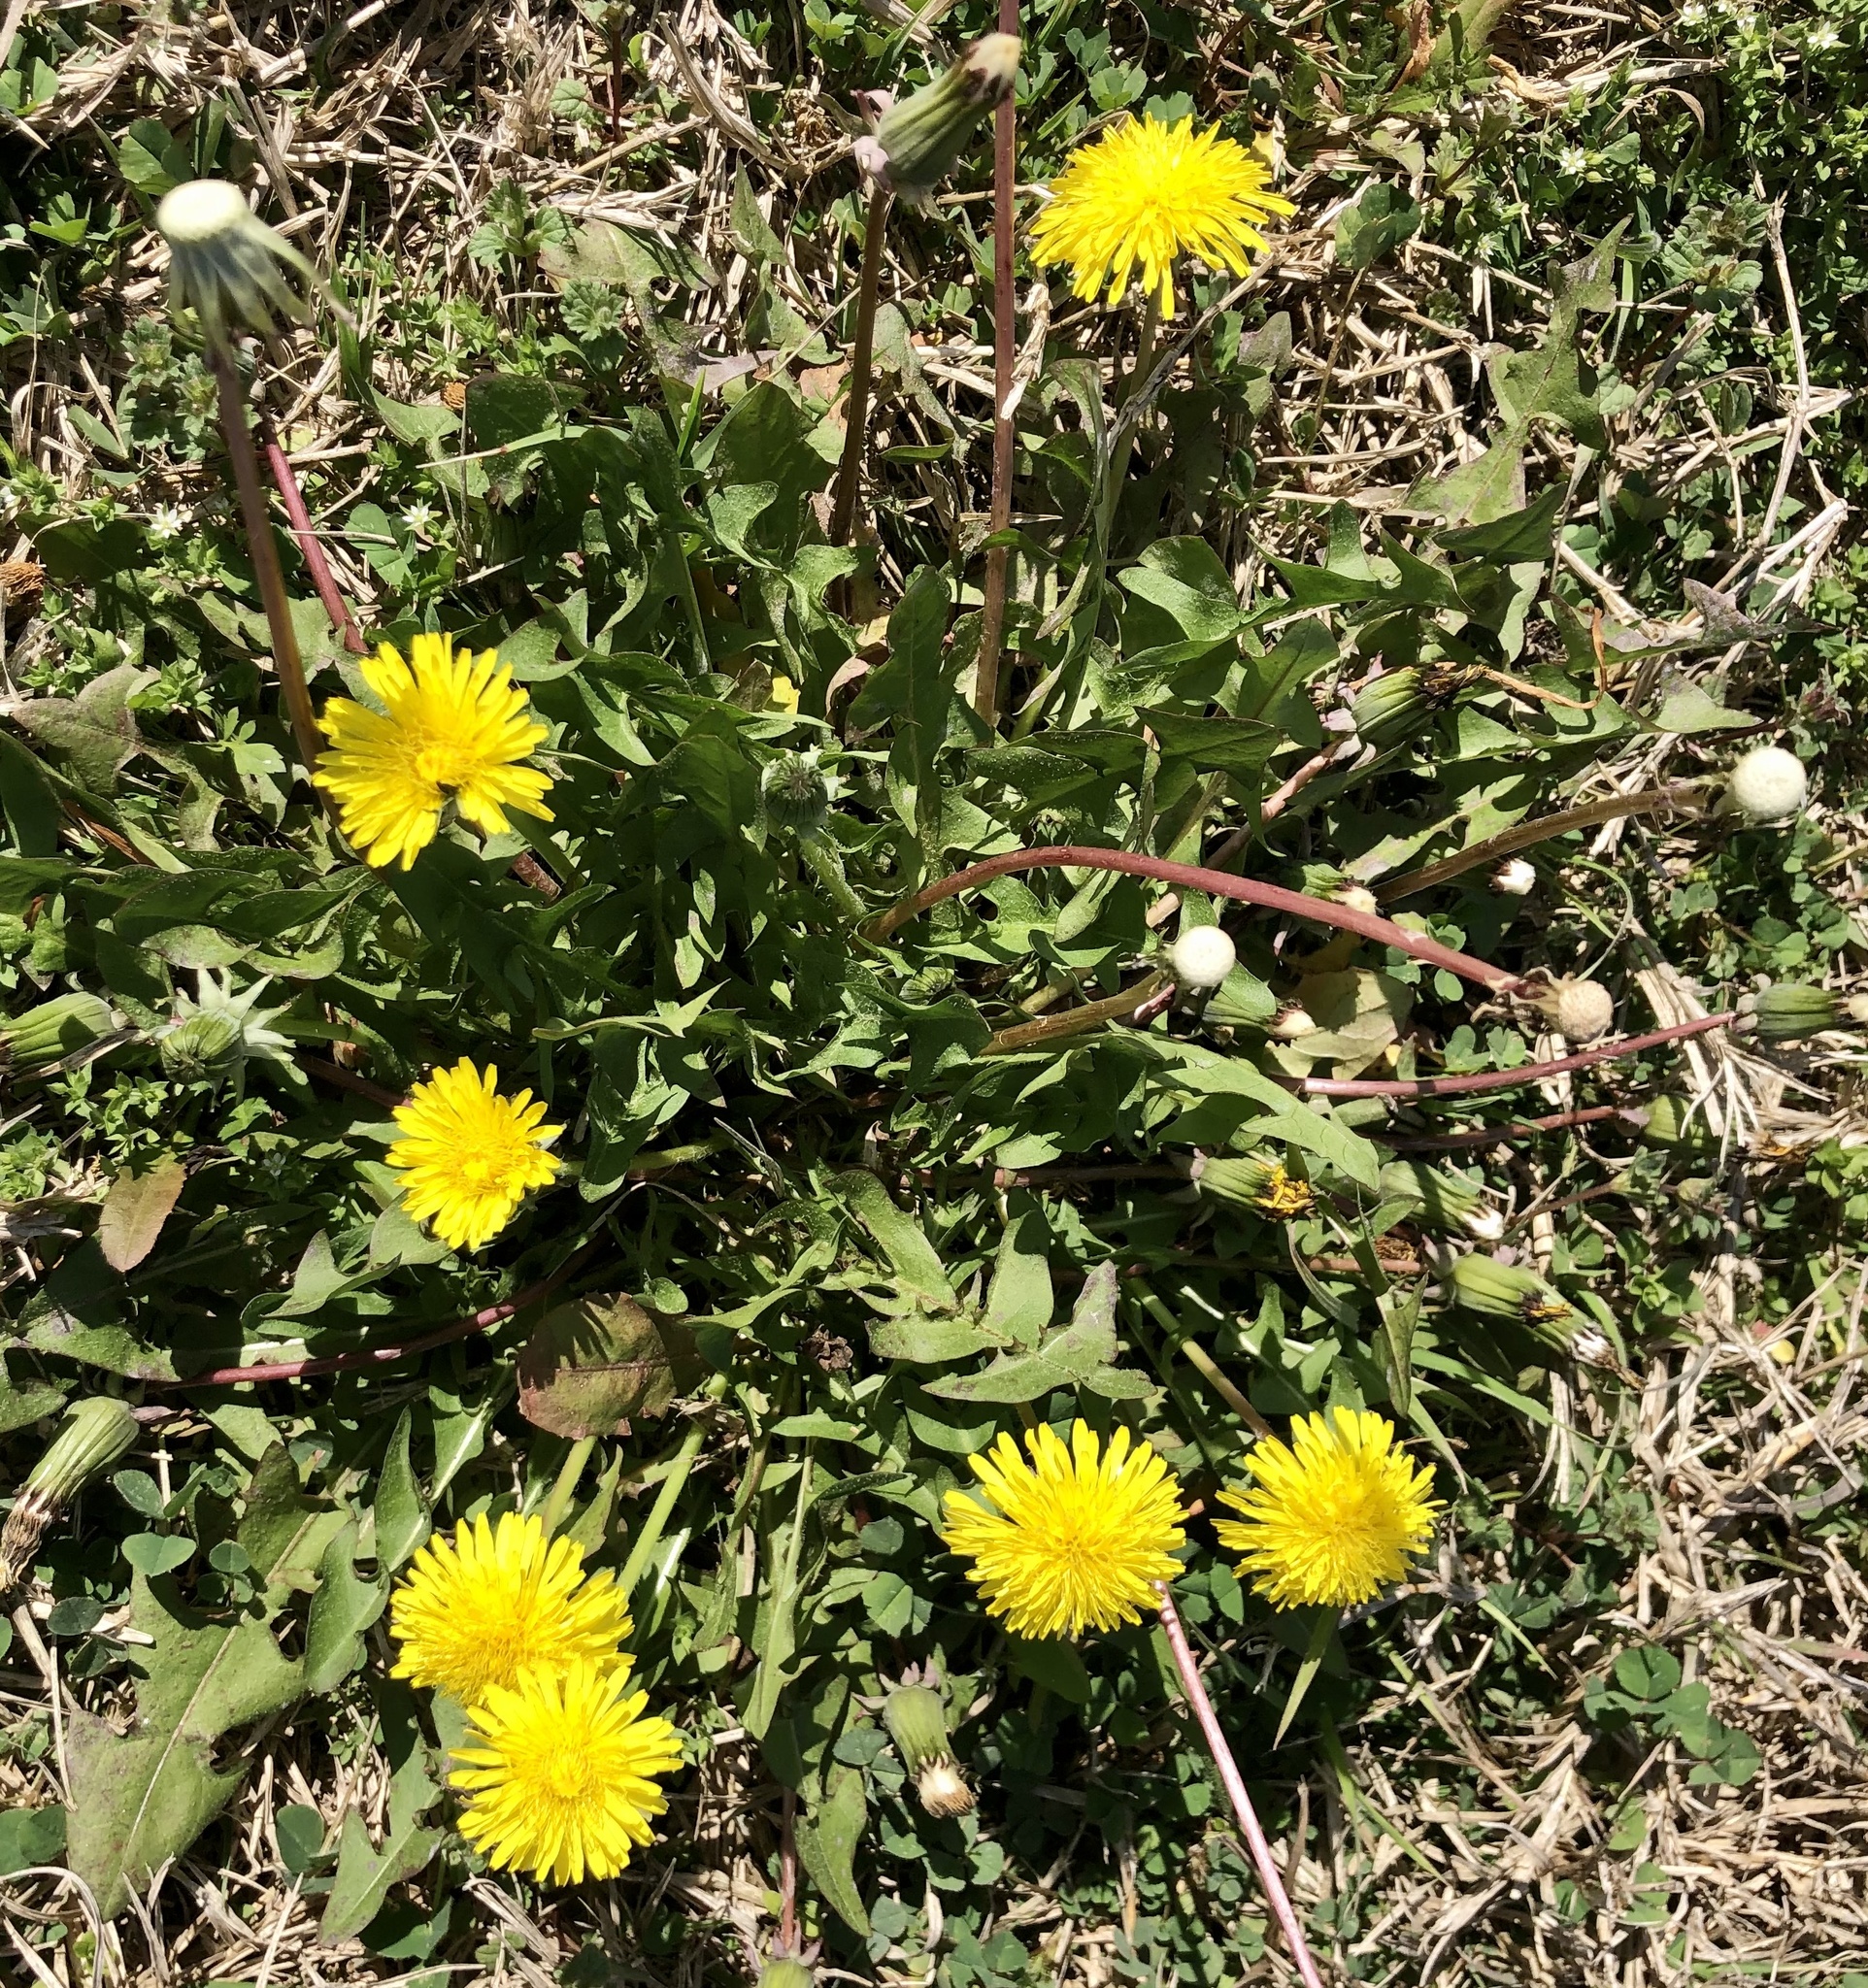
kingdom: Plantae
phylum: Tracheophyta
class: Magnoliopsida
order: Asterales
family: Asteraceae
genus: Taraxacum
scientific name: Taraxacum officinale
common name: Common dandelion
